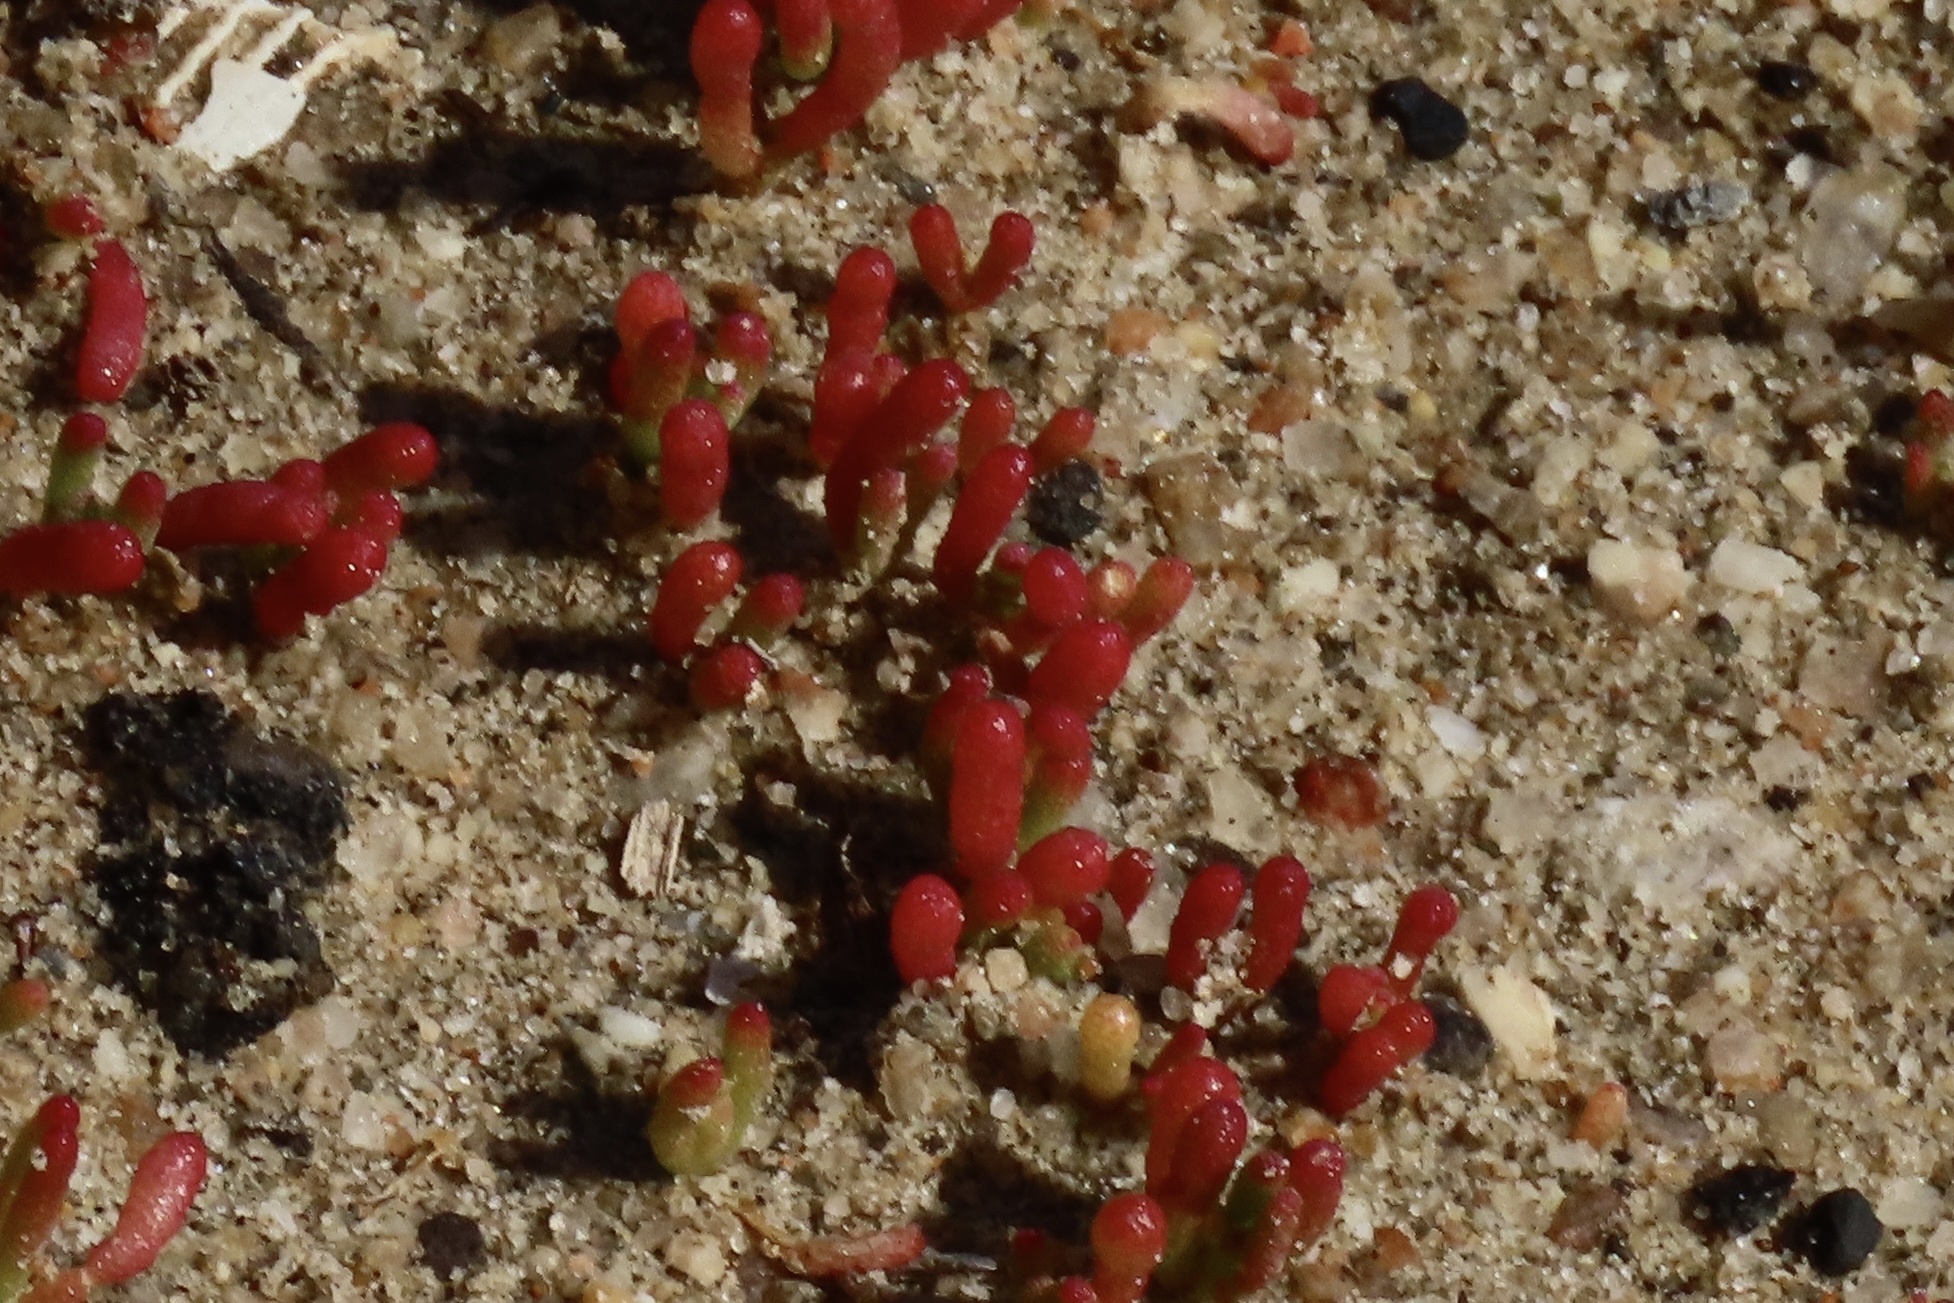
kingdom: Plantae
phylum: Tracheophyta
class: Magnoliopsida
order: Caryophyllales
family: Aizoaceae
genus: Mesembryanthemum
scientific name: Mesembryanthemum nodiflorum
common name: Slenderleaf iceplant
